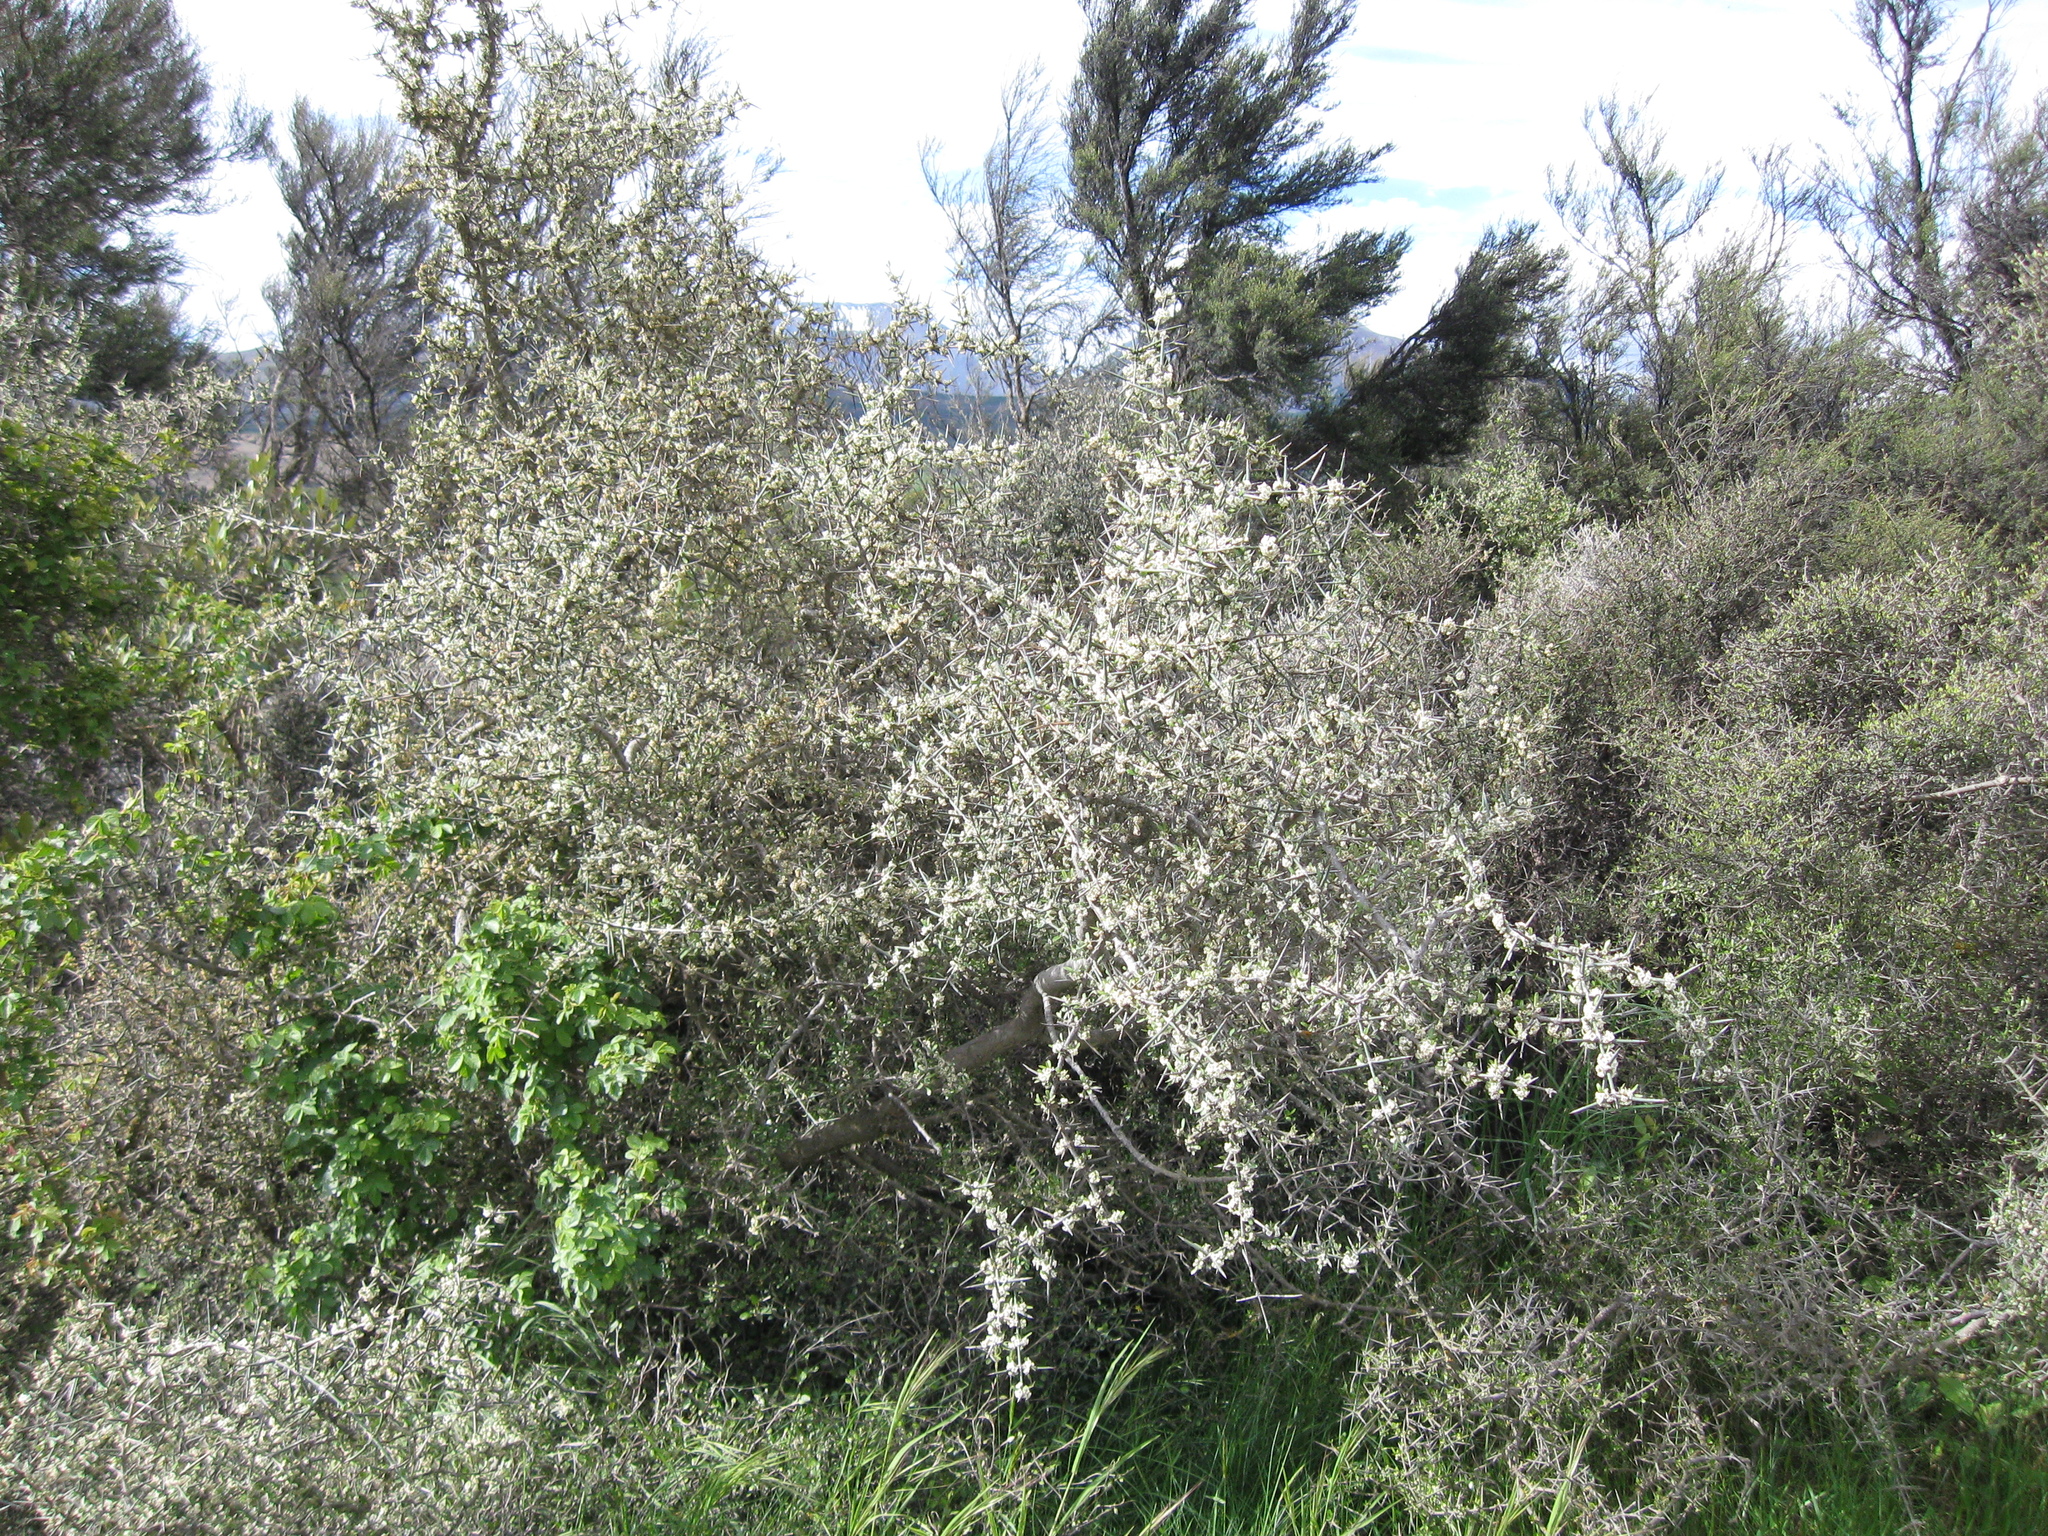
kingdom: Plantae
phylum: Tracheophyta
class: Magnoliopsida
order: Rosales
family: Rhamnaceae
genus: Discaria
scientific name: Discaria toumatou
